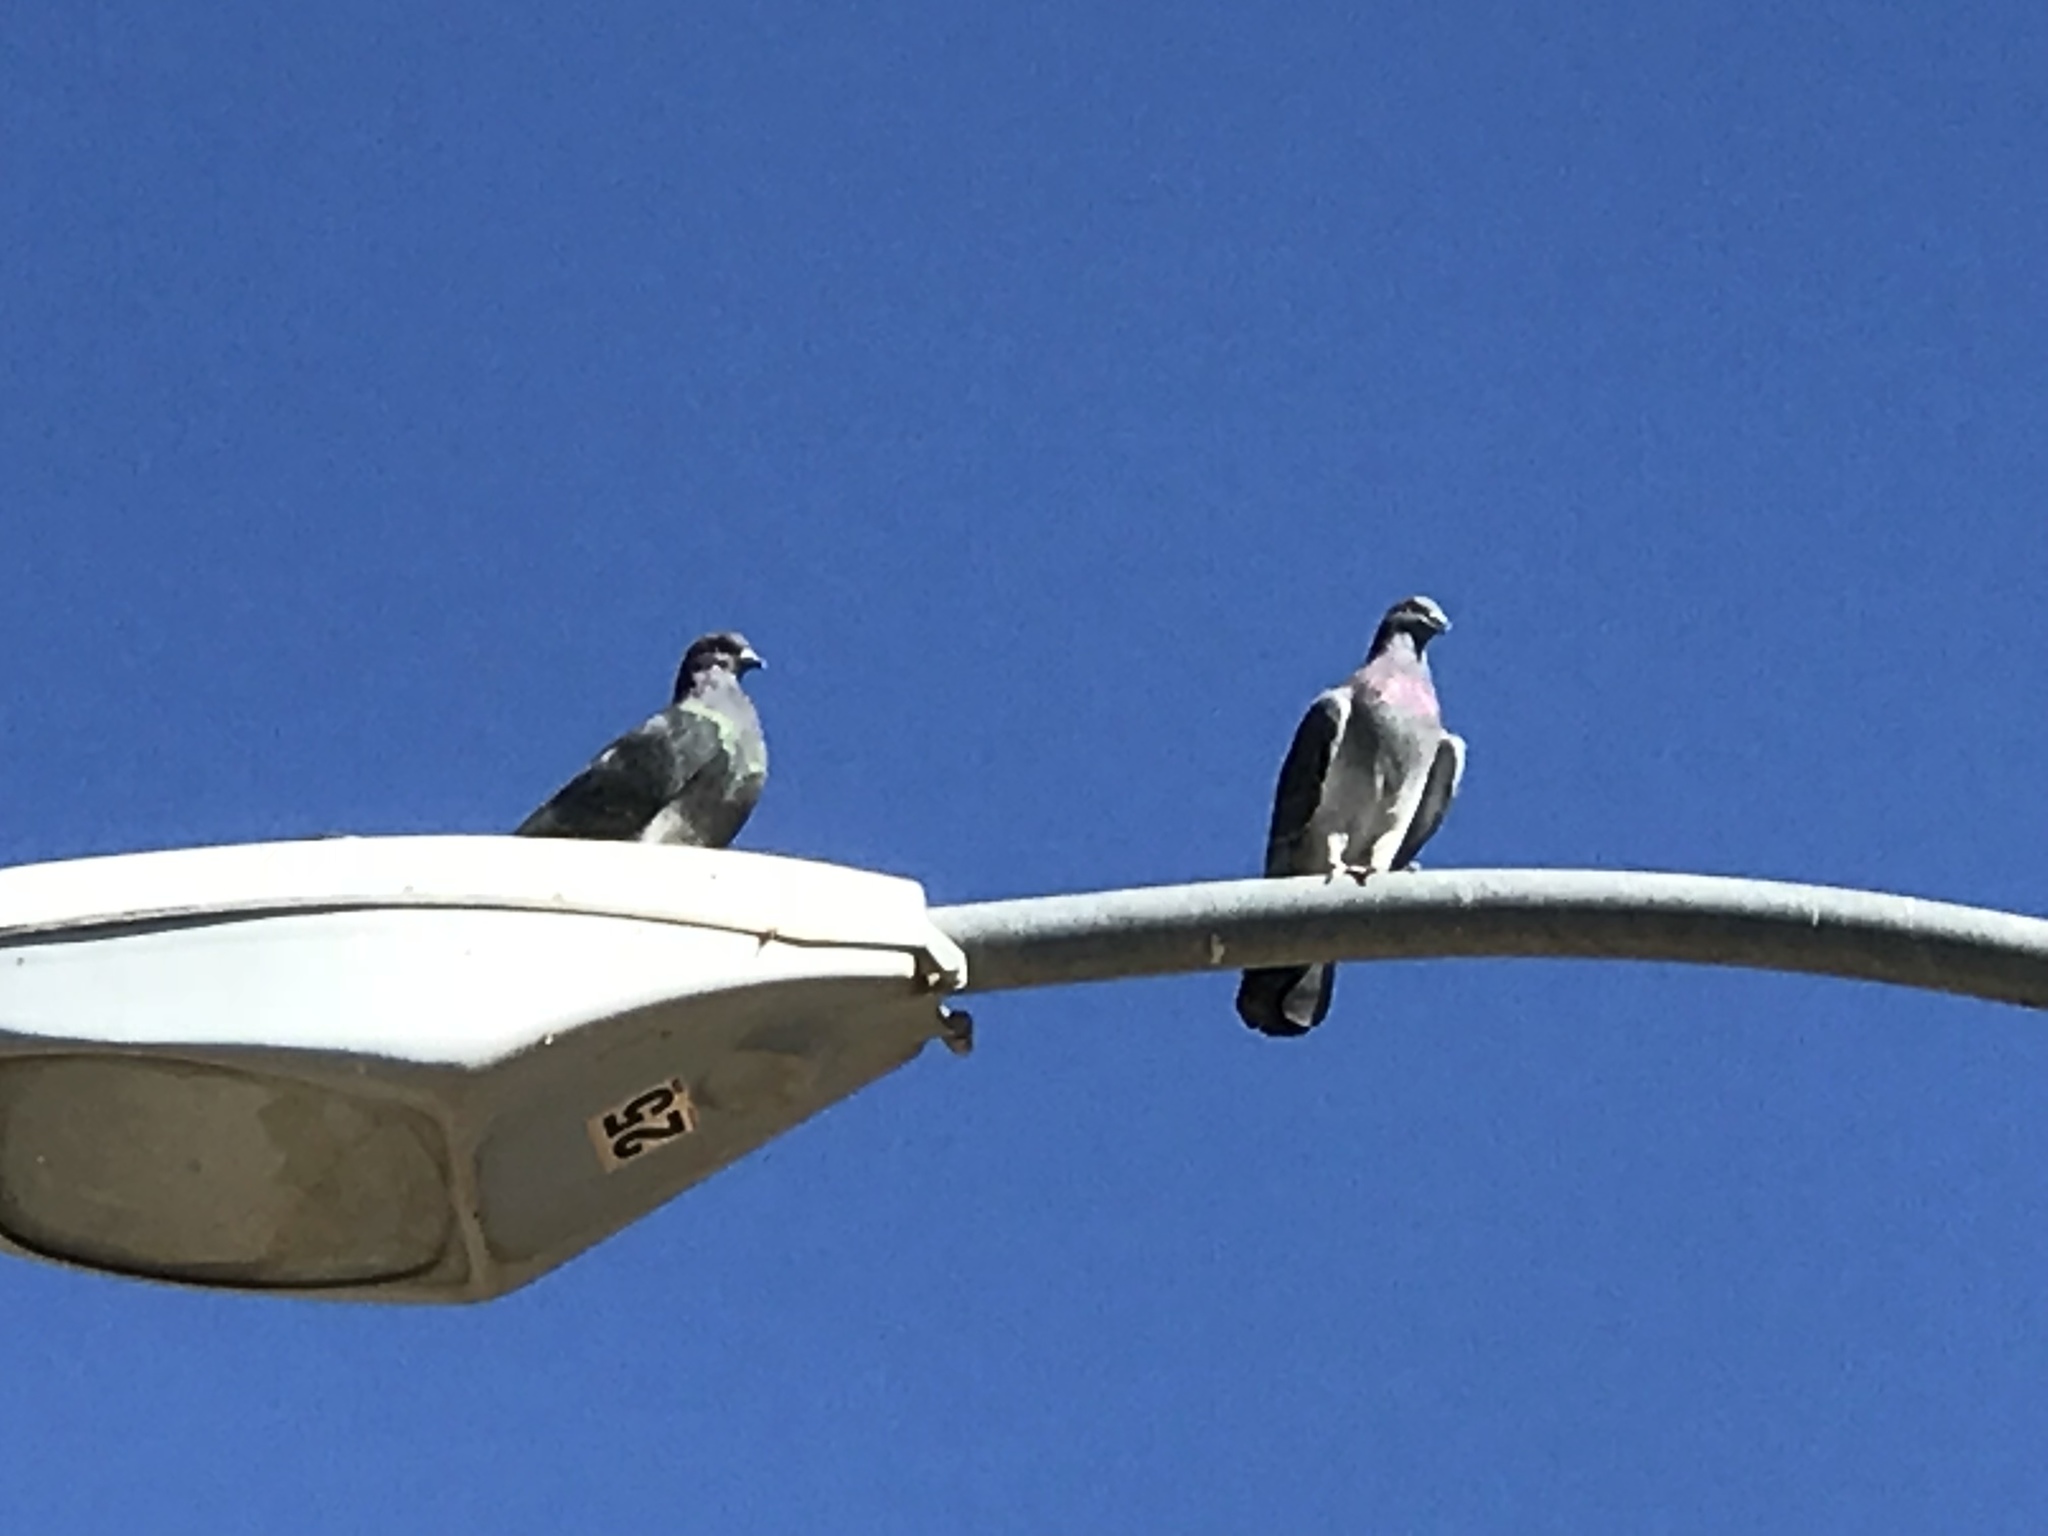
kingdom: Animalia
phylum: Chordata
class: Aves
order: Columbiformes
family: Columbidae
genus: Columba
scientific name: Columba livia
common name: Rock pigeon
